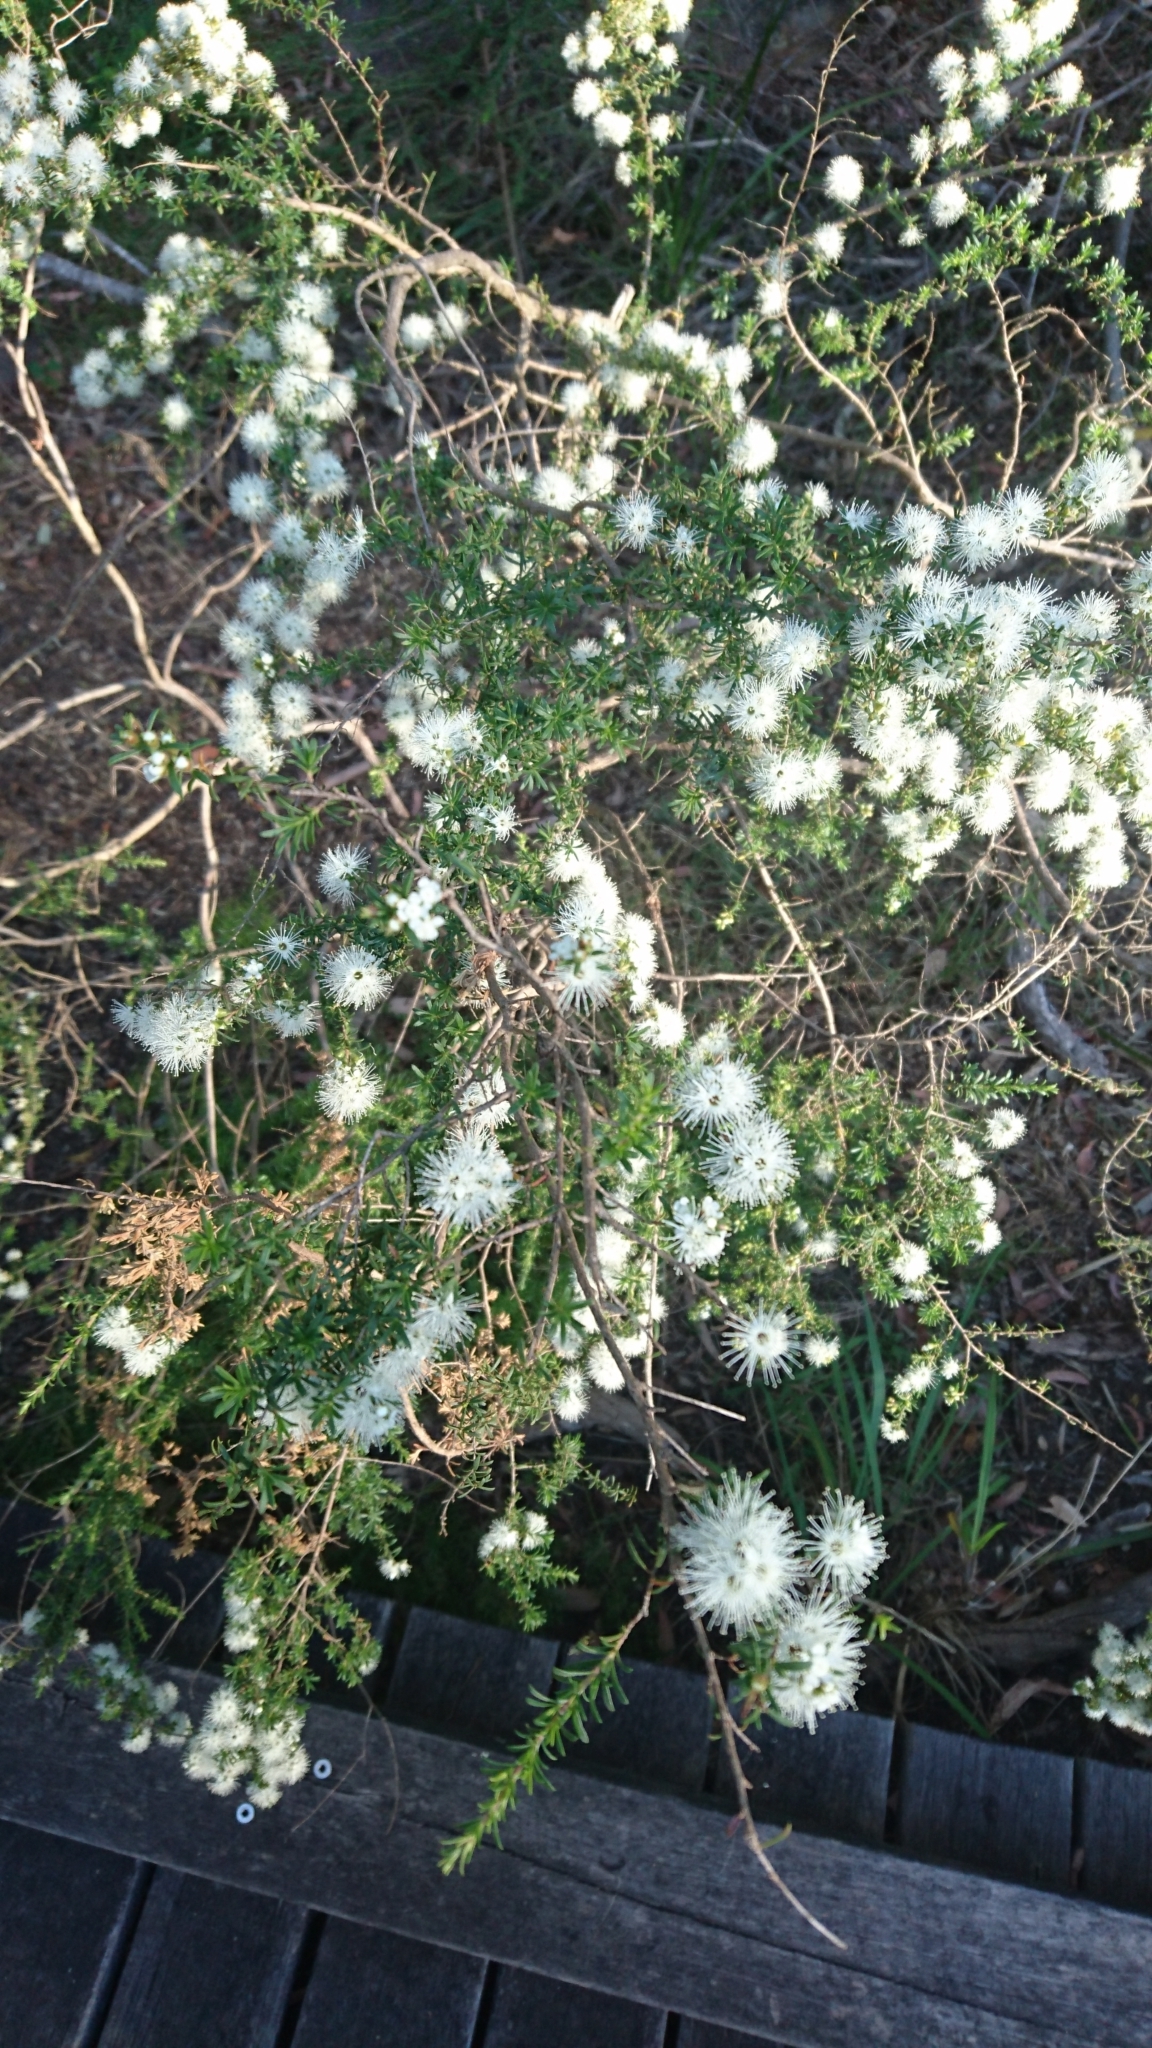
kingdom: Plantae
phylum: Tracheophyta
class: Magnoliopsida
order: Myrtales
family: Myrtaceae
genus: Kunzea
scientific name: Kunzea ambigua
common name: Tickbush
